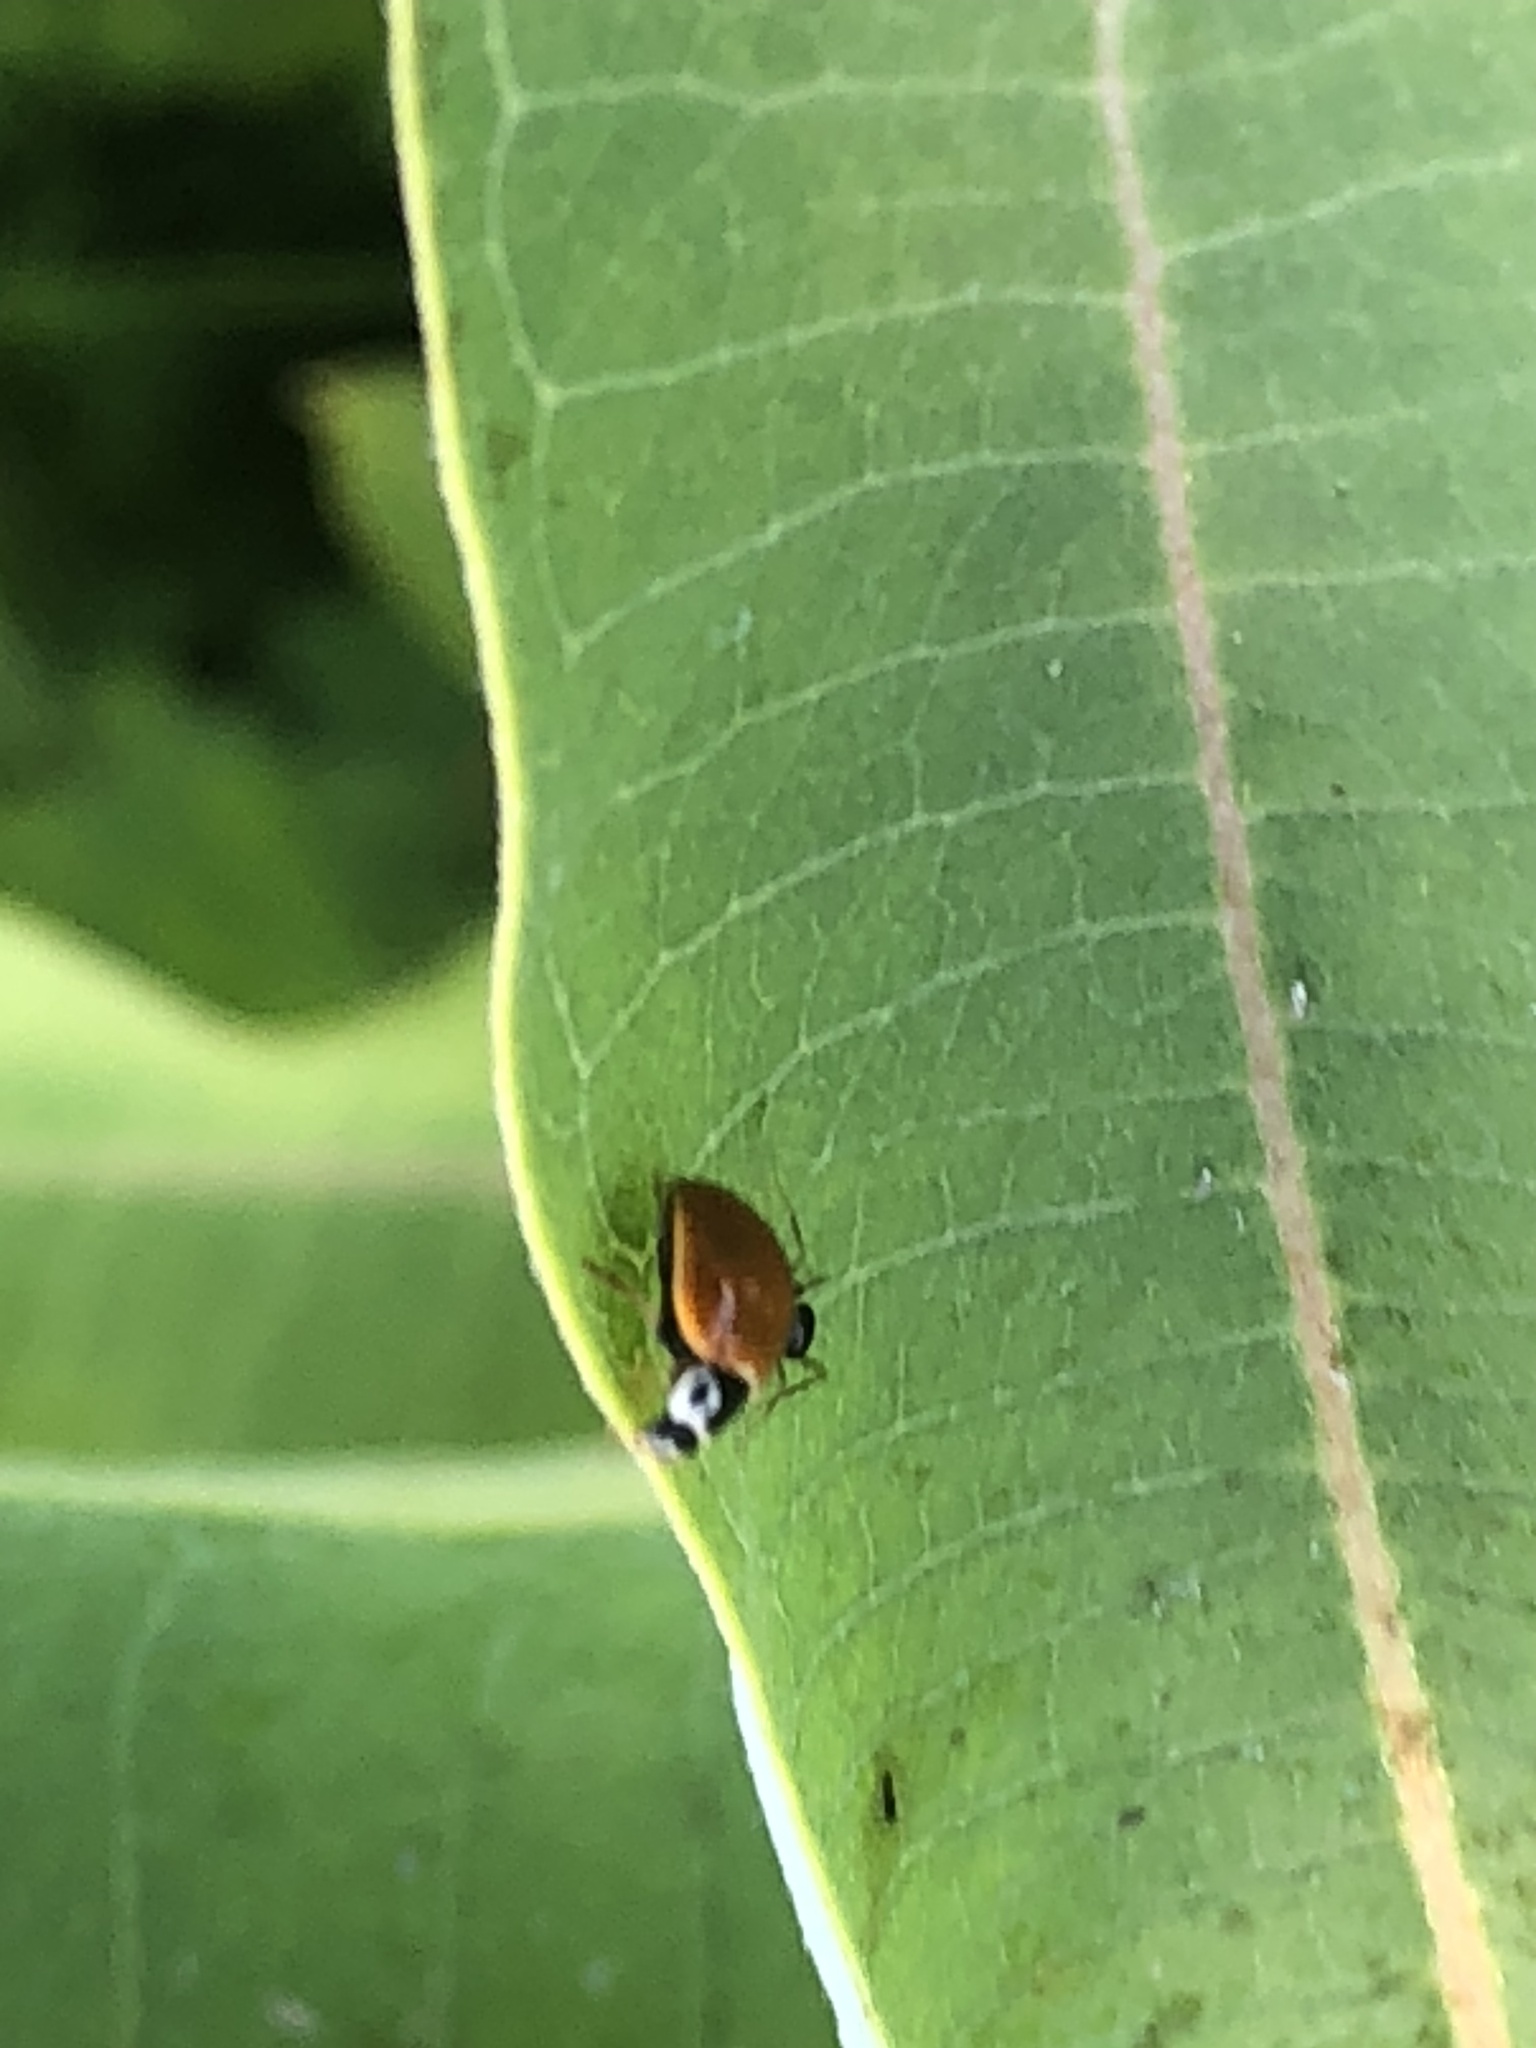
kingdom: Animalia
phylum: Arthropoda
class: Insecta
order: Coleoptera
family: Coccinellidae
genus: Cycloneda
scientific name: Cycloneda munda
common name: Polished lady beetle
